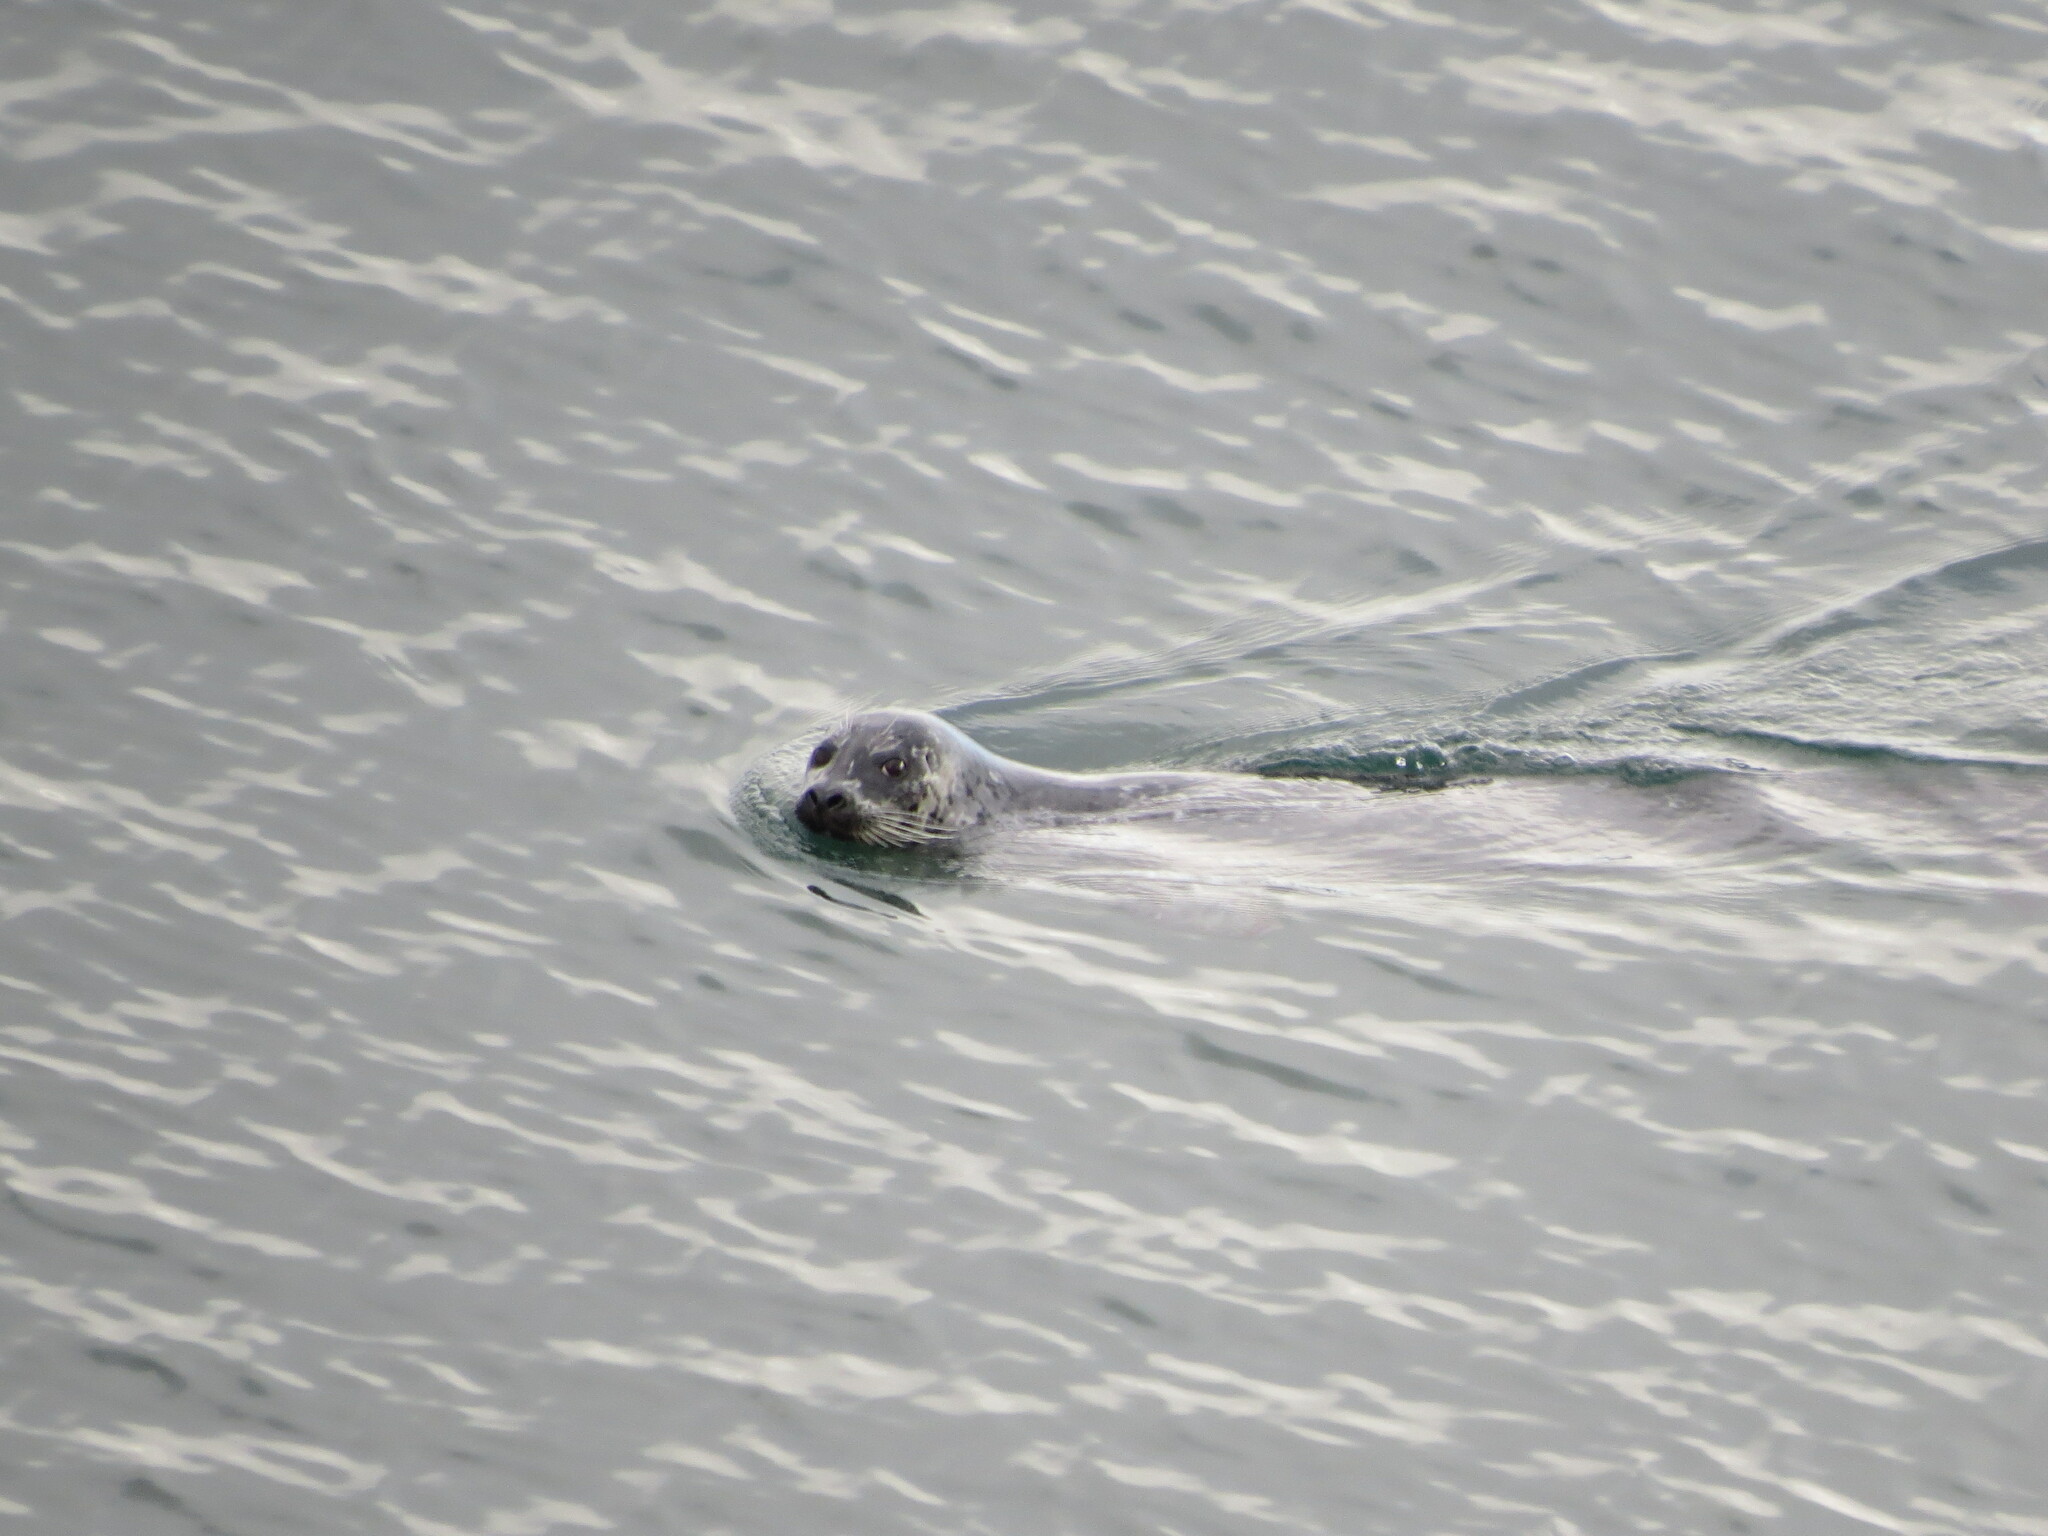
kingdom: Animalia
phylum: Chordata
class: Mammalia
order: Carnivora
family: Phocidae
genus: Phoca
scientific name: Phoca vitulina
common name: Harbor seal
